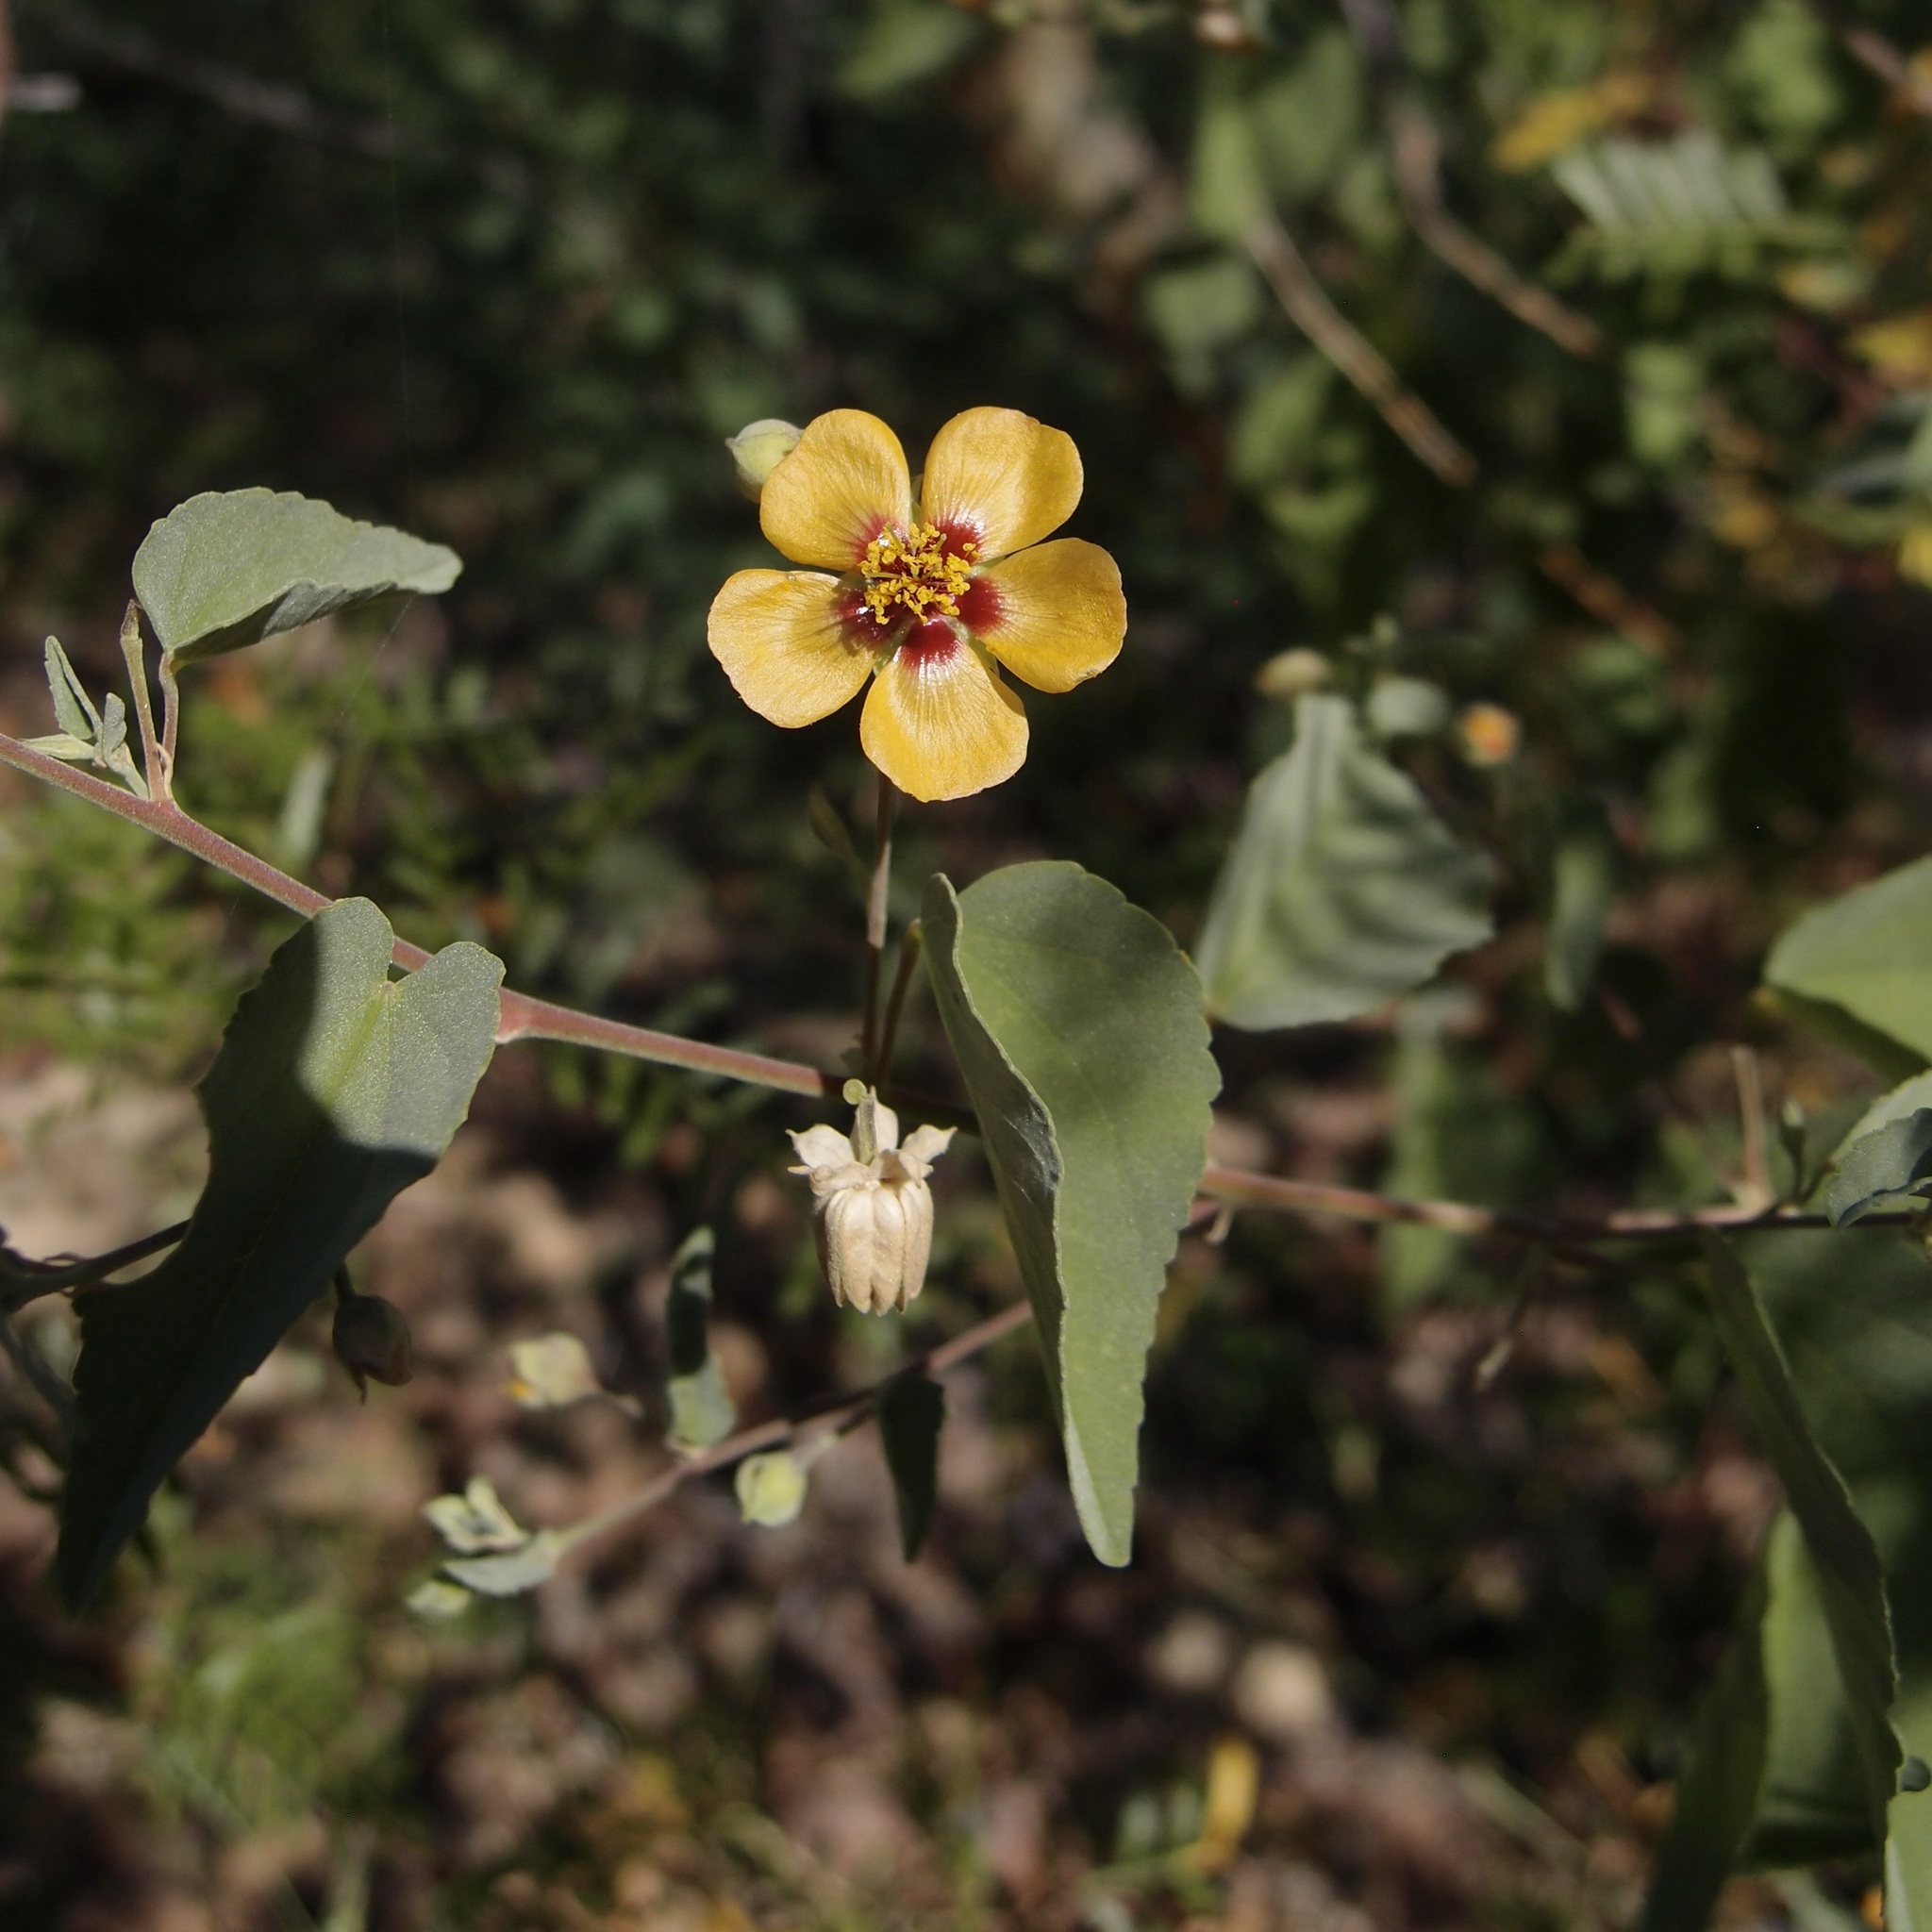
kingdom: Plantae
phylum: Tracheophyta
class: Magnoliopsida
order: Malvales
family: Malvaceae
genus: Abutilon
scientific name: Abutilon incanum
